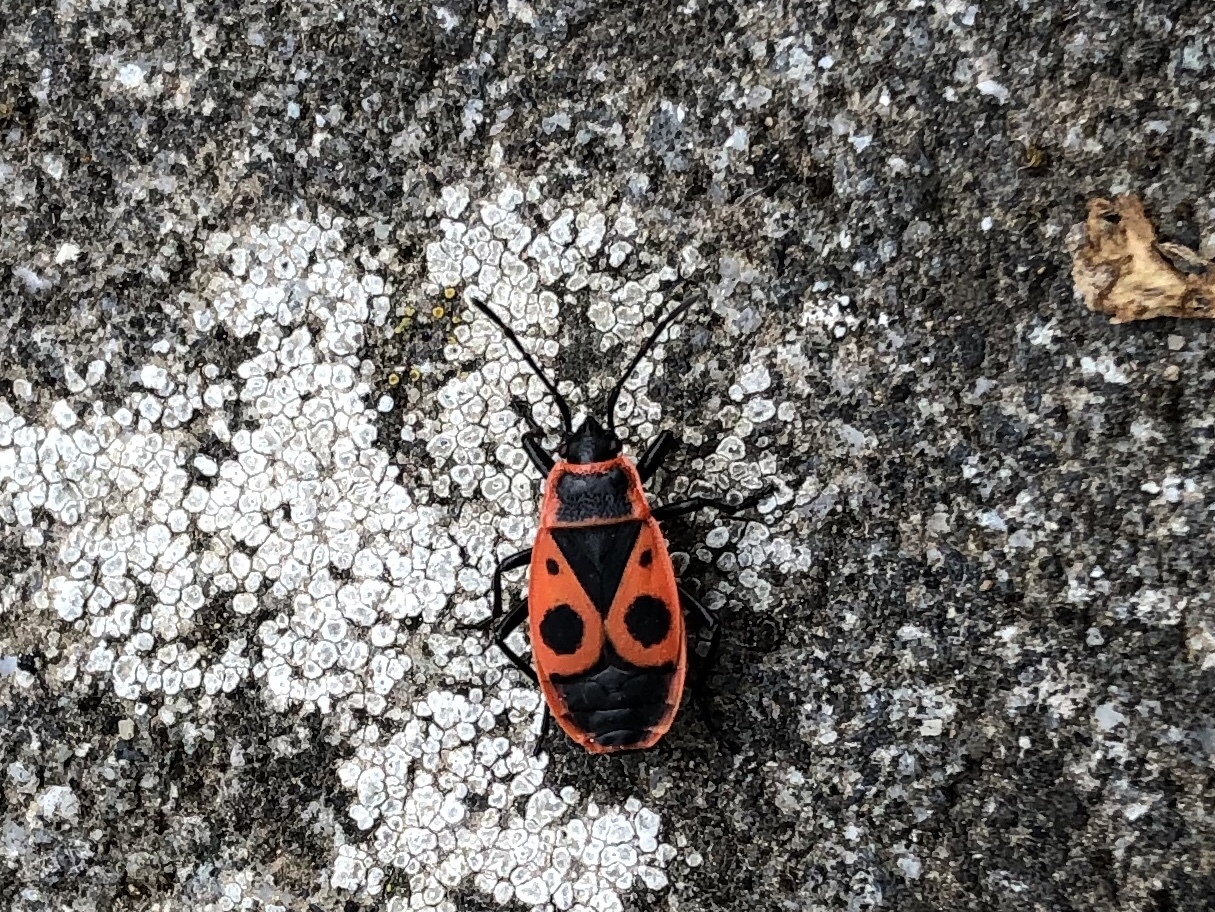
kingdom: Animalia
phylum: Arthropoda
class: Insecta
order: Hemiptera
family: Pyrrhocoridae
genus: Pyrrhocoris
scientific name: Pyrrhocoris apterus
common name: Firebug
